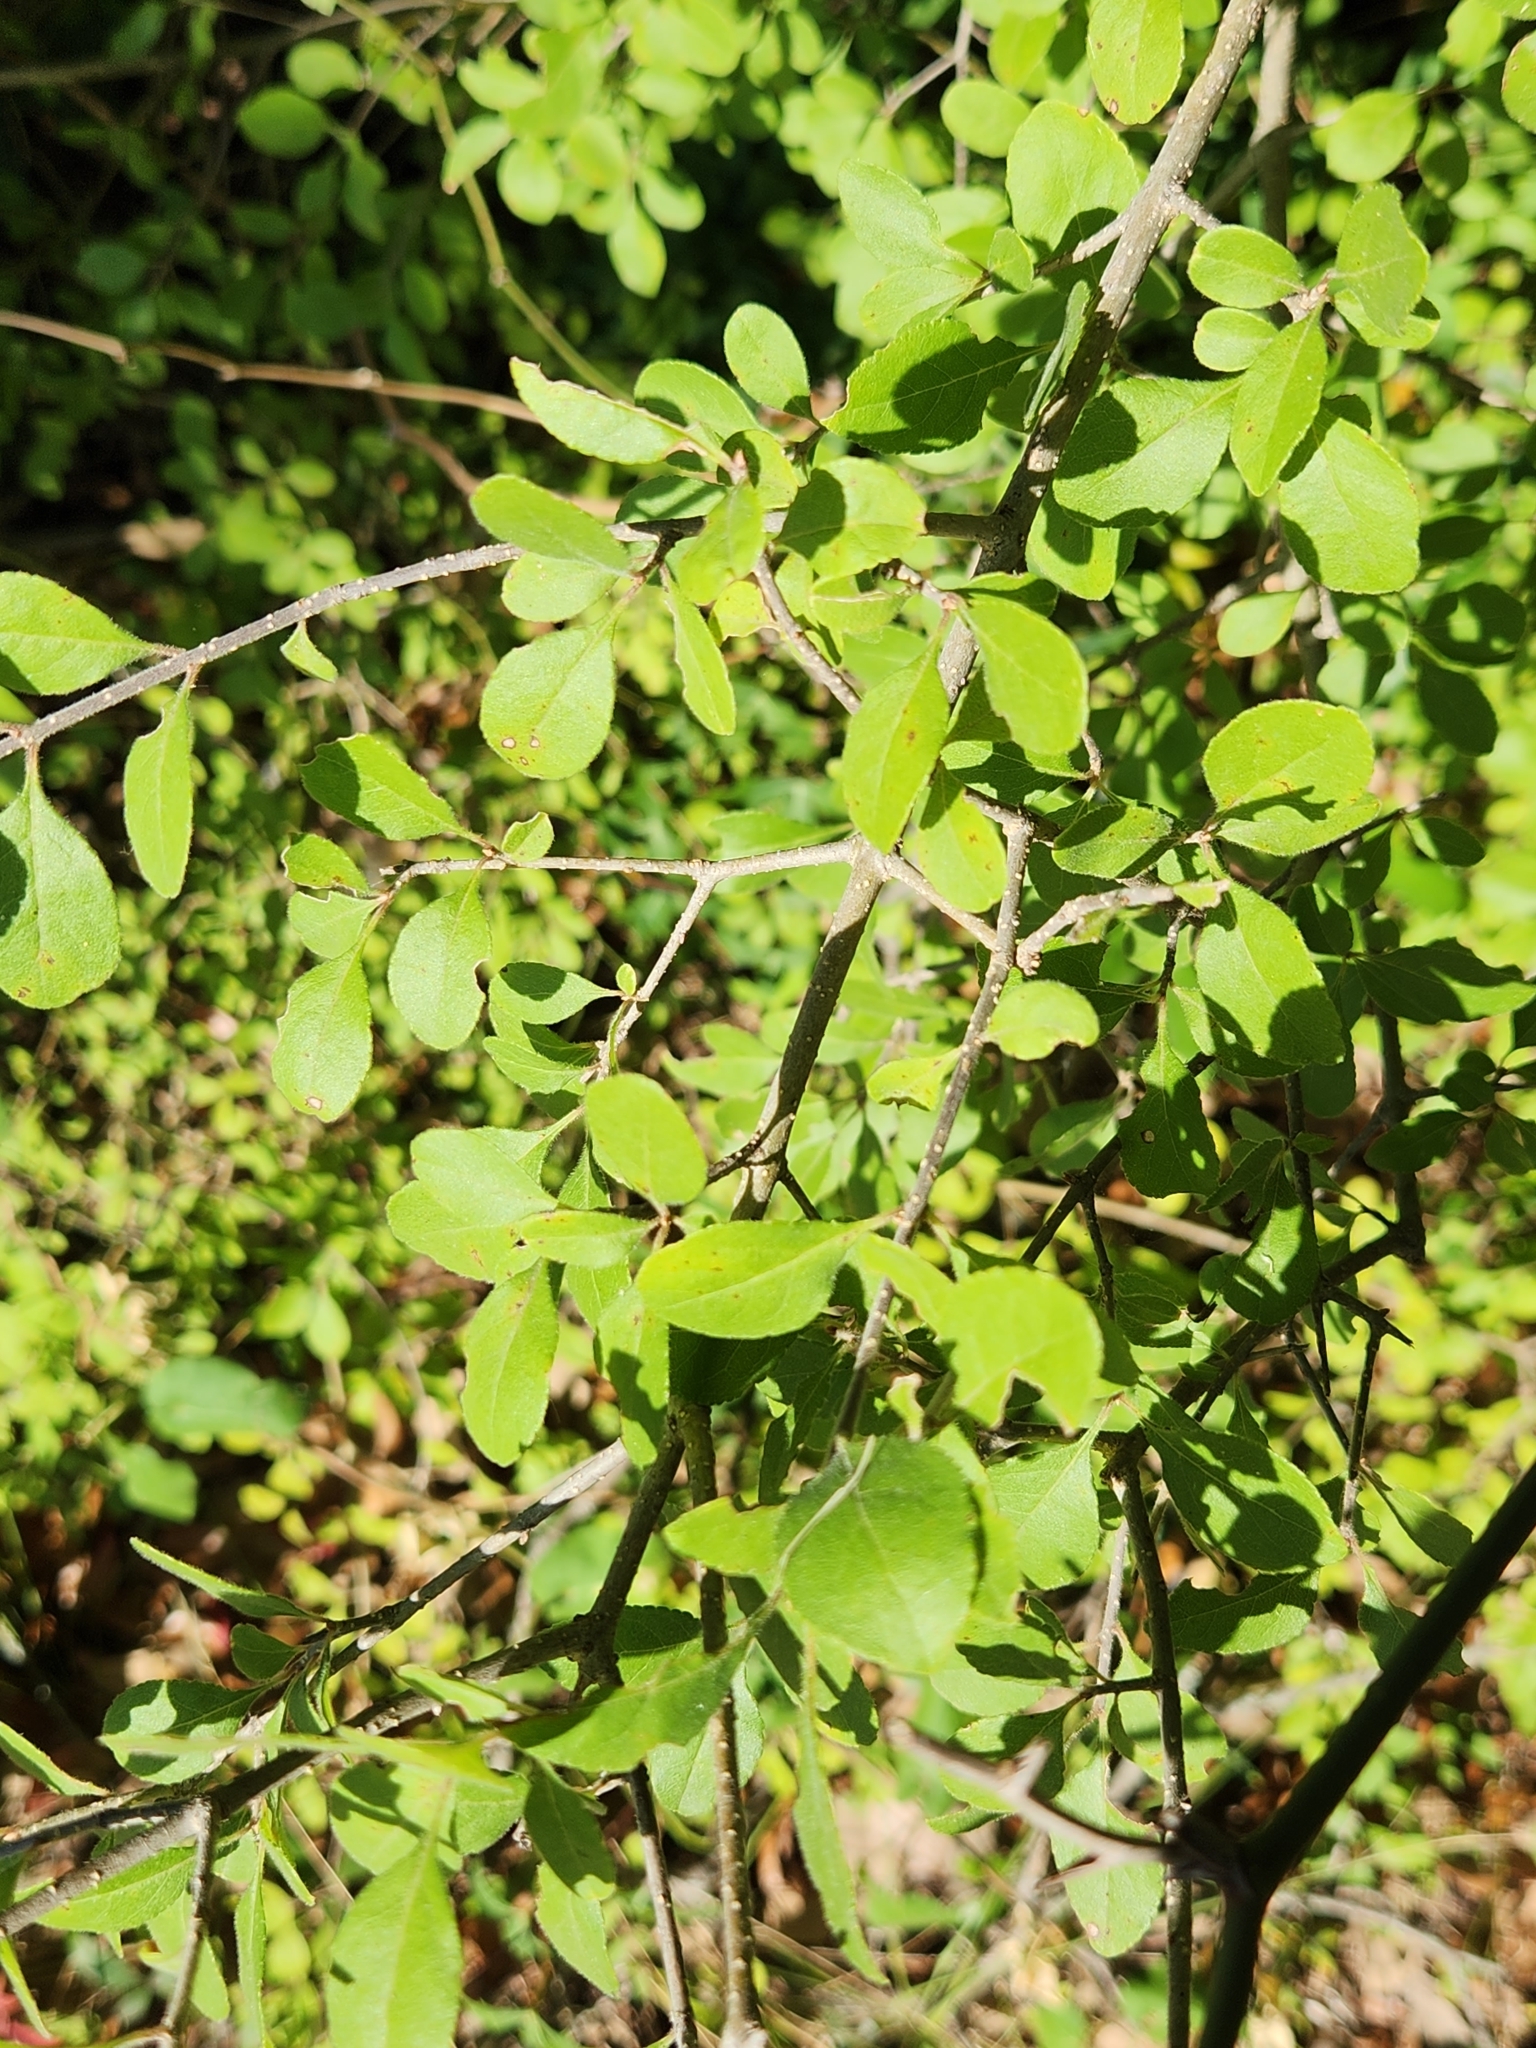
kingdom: Plantae
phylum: Tracheophyta
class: Magnoliopsida
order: Lamiales
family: Oleaceae
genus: Forestiera
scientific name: Forestiera pubescens
